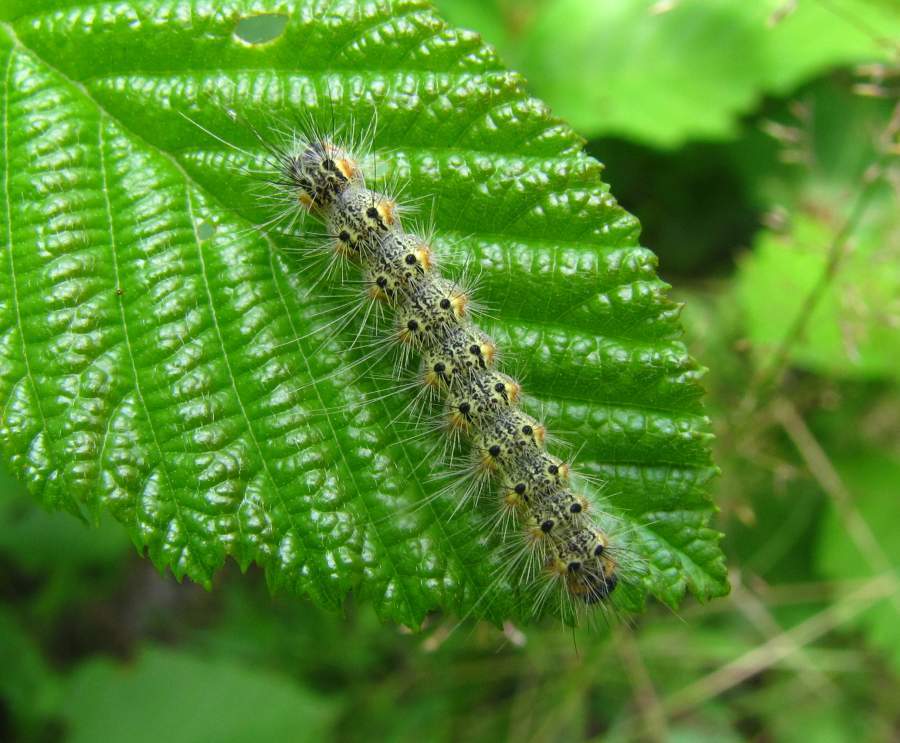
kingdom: Animalia
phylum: Arthropoda
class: Insecta
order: Lepidoptera
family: Erebidae
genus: Hyphantria
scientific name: Hyphantria cunea
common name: American white moth
